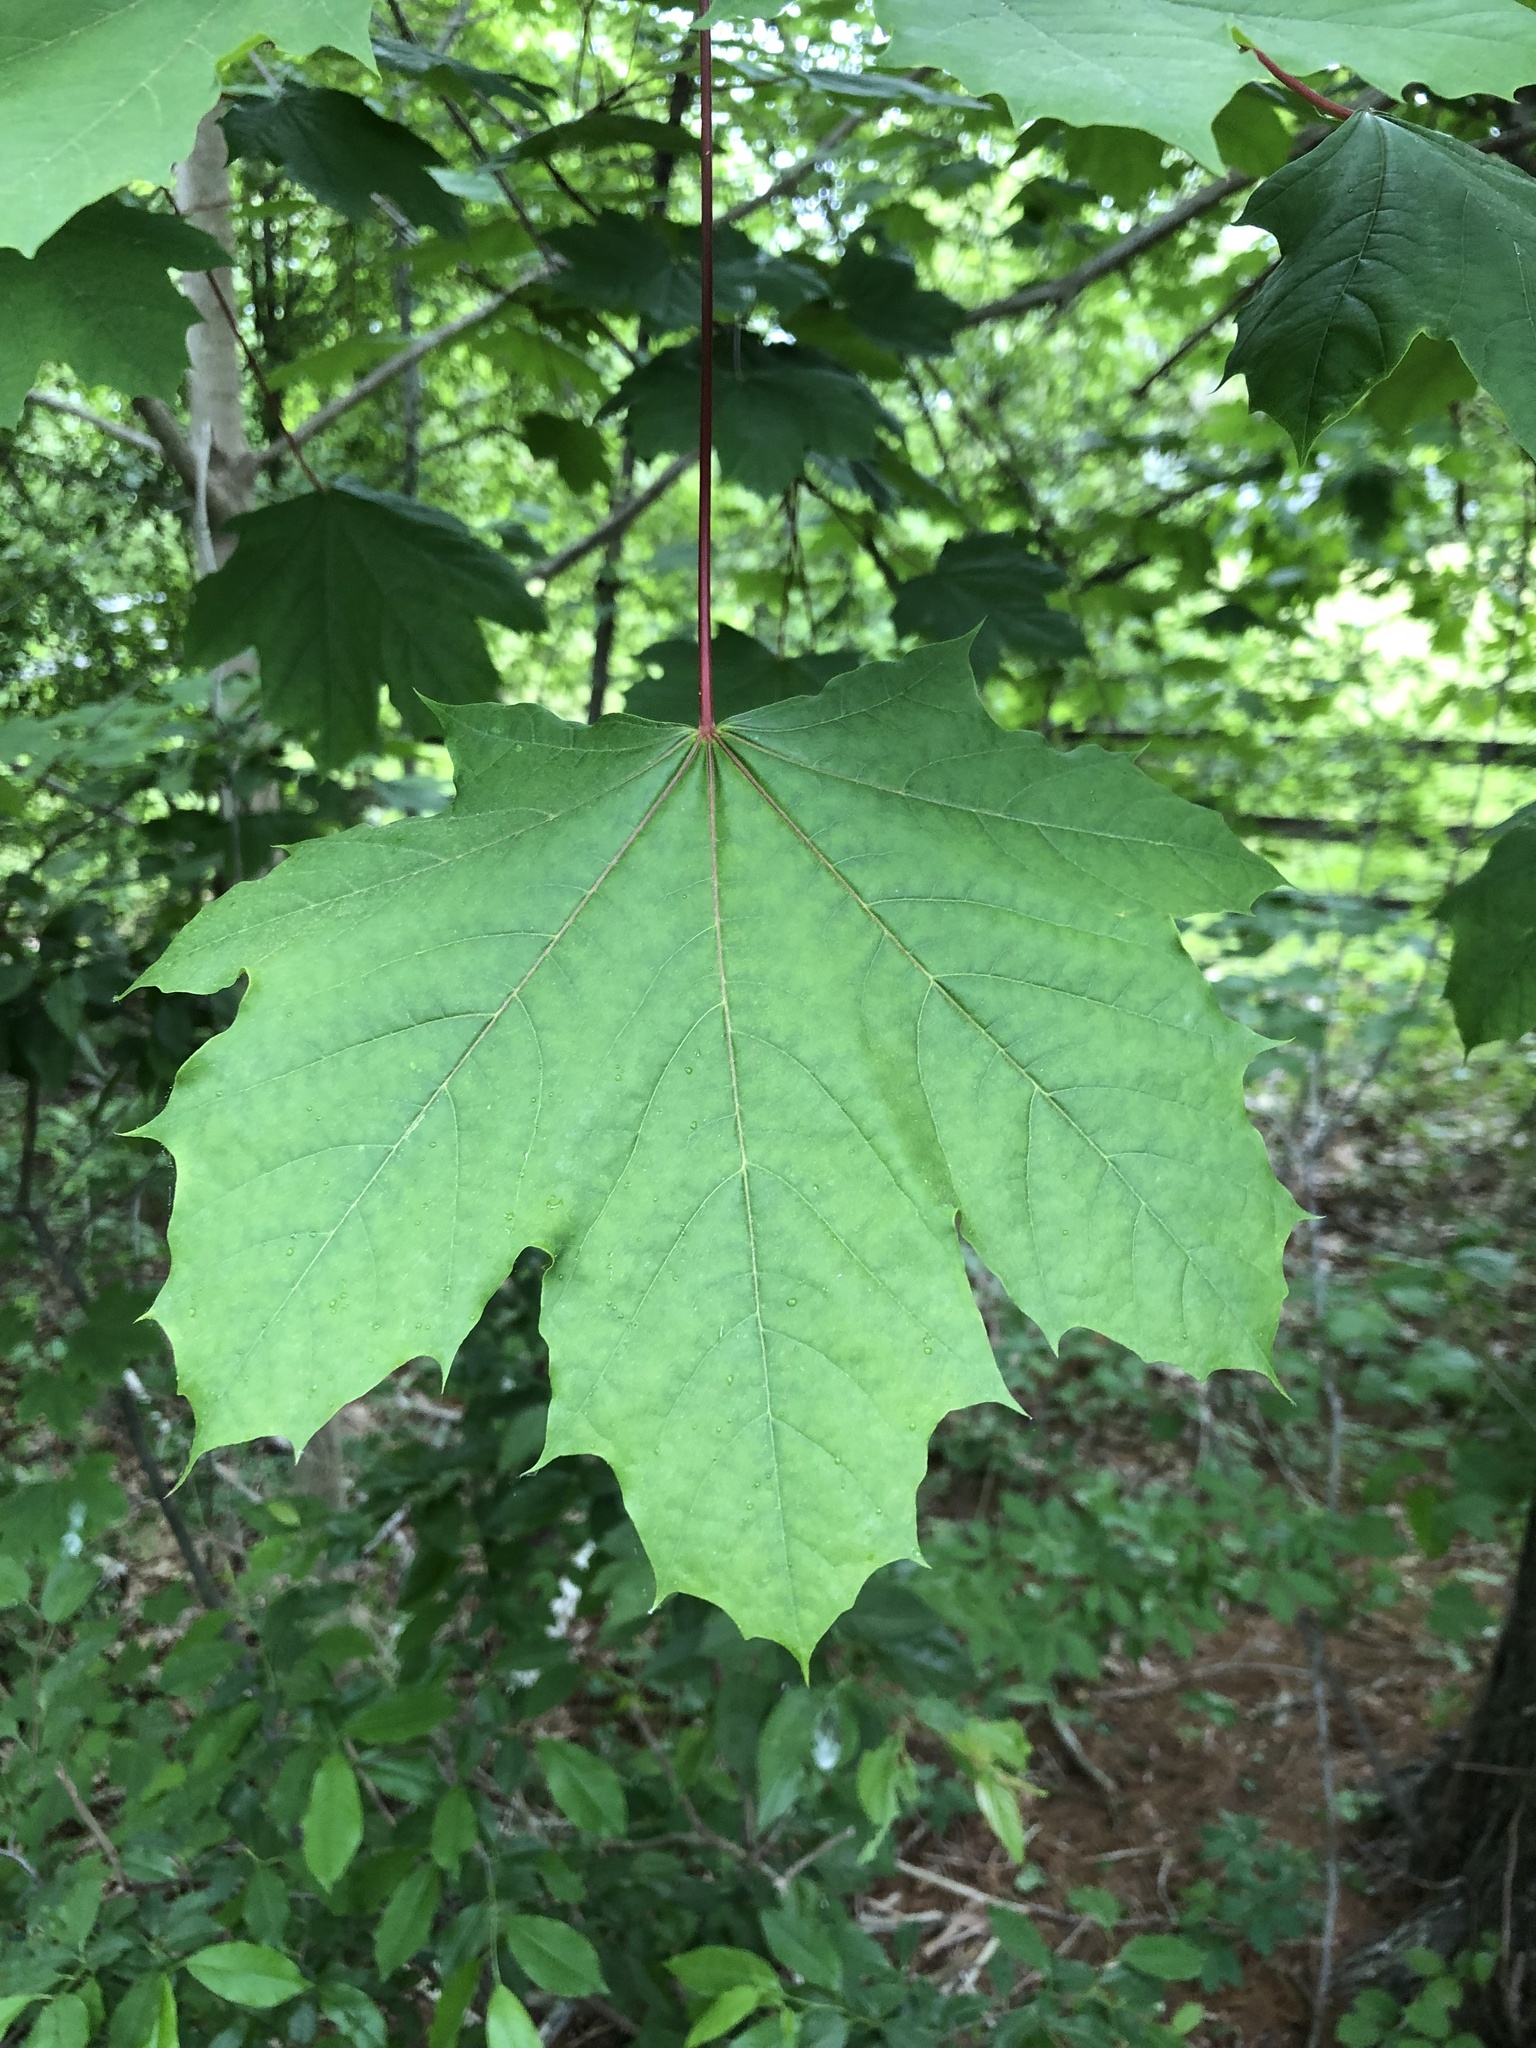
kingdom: Plantae
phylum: Tracheophyta
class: Magnoliopsida
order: Sapindales
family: Sapindaceae
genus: Acer
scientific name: Acer platanoides
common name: Norway maple
